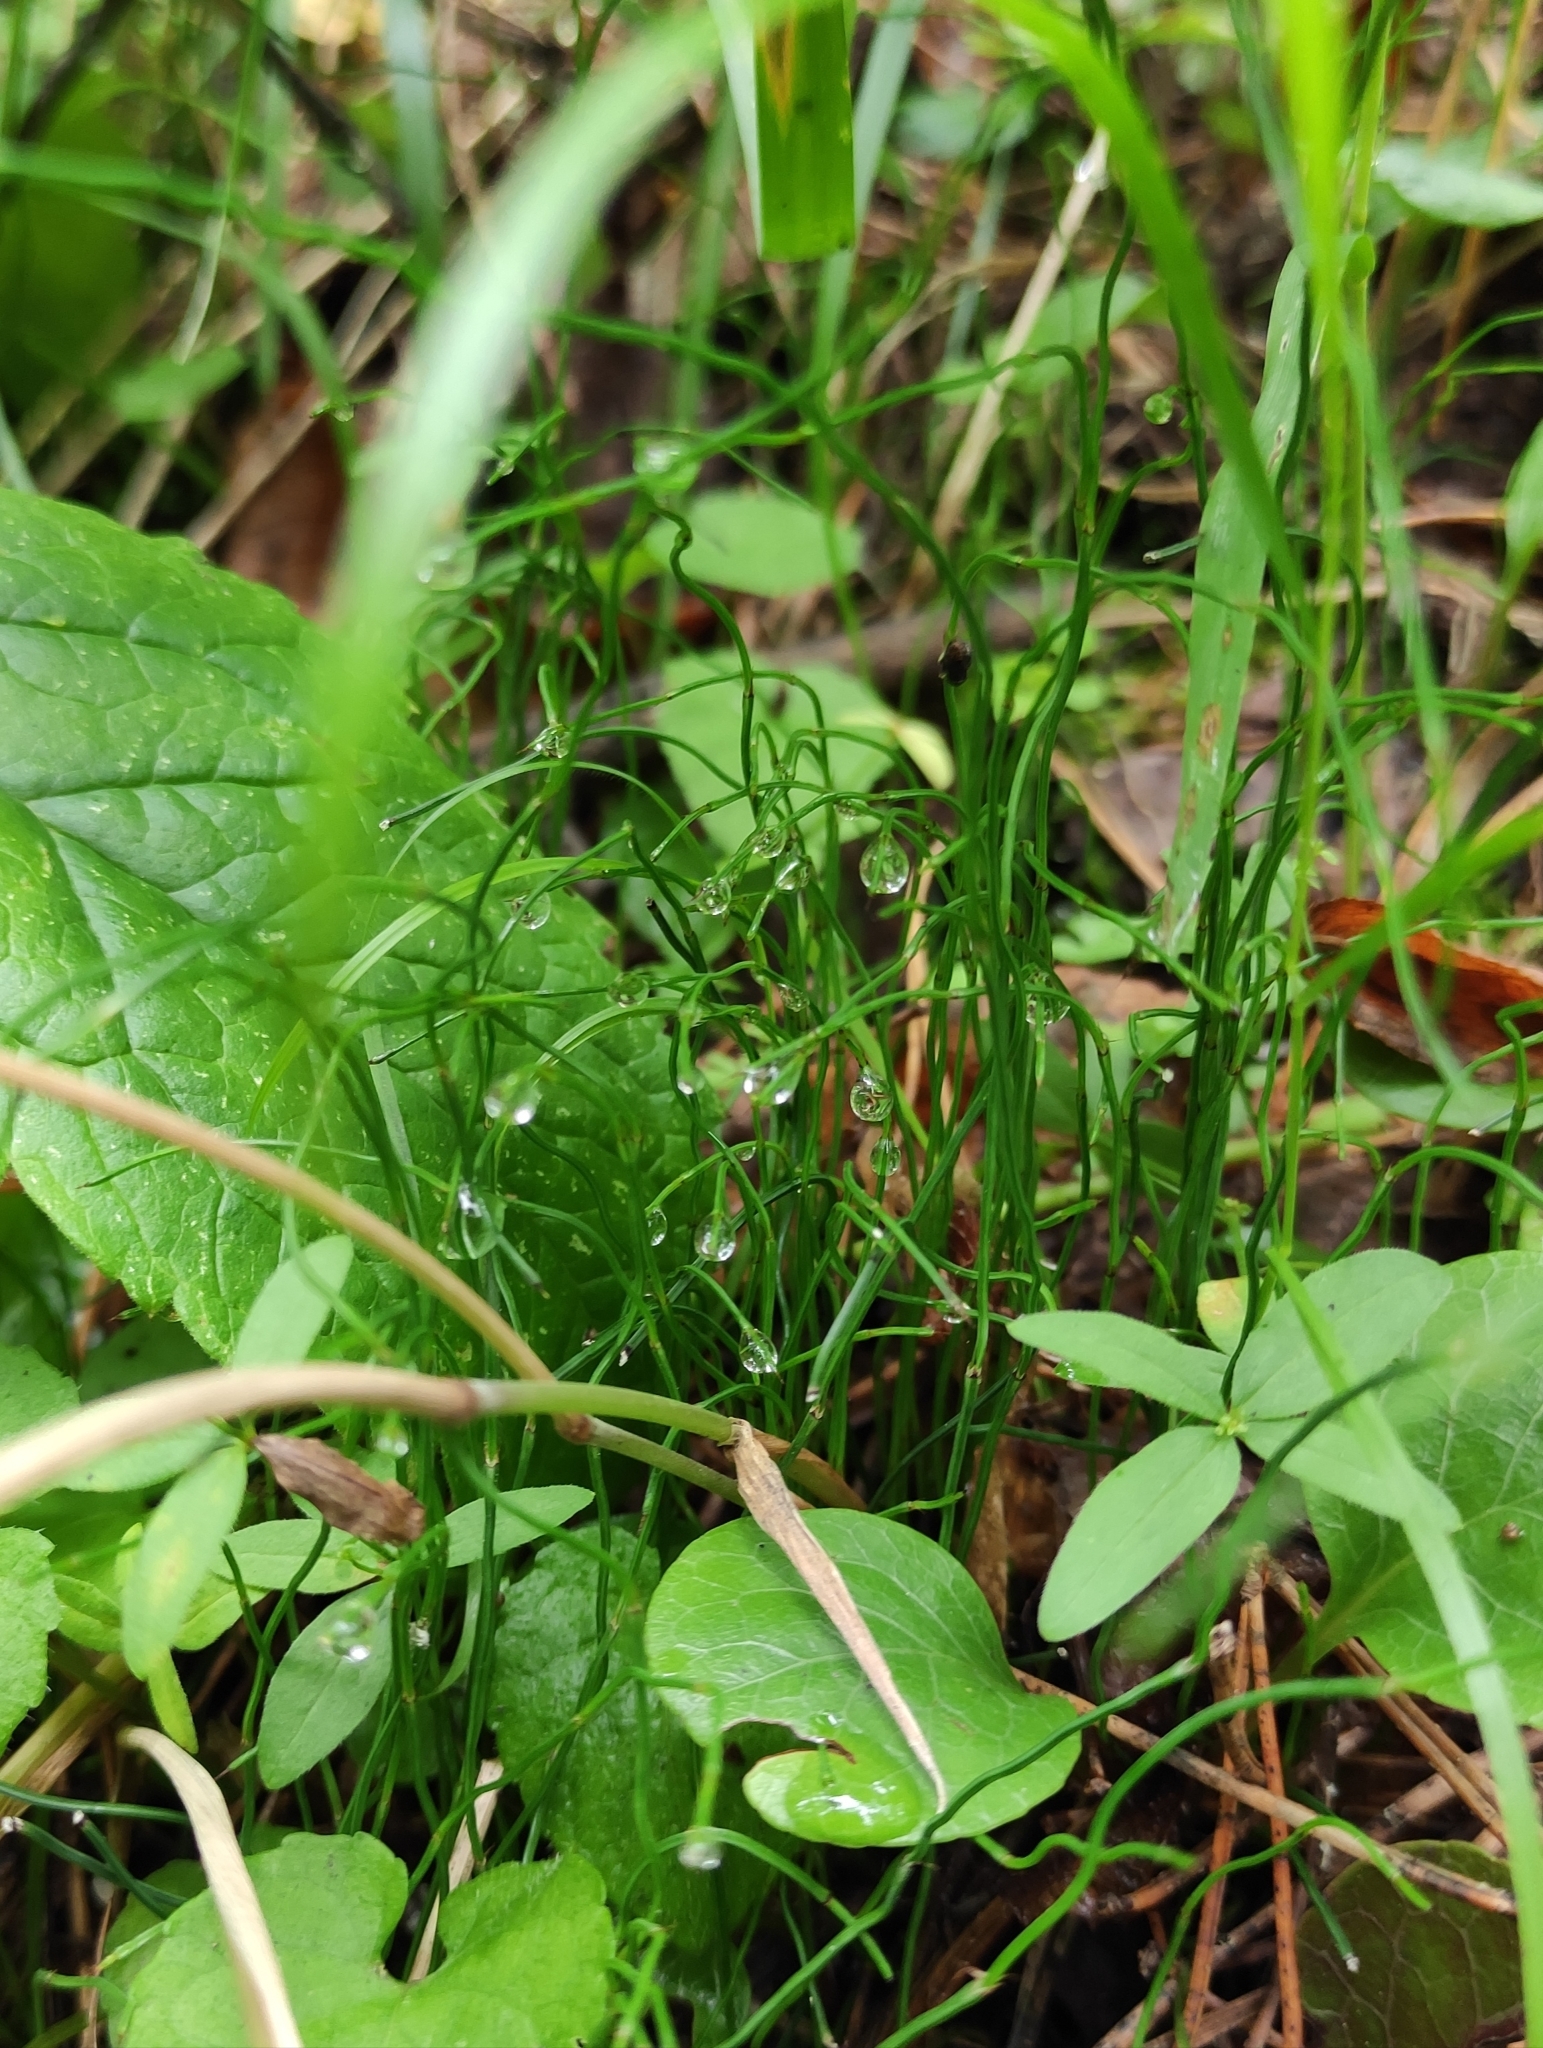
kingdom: Plantae
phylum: Tracheophyta
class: Polypodiopsida
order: Equisetales
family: Equisetaceae
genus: Equisetum
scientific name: Equisetum scirpoides
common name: Delicate horsetail
